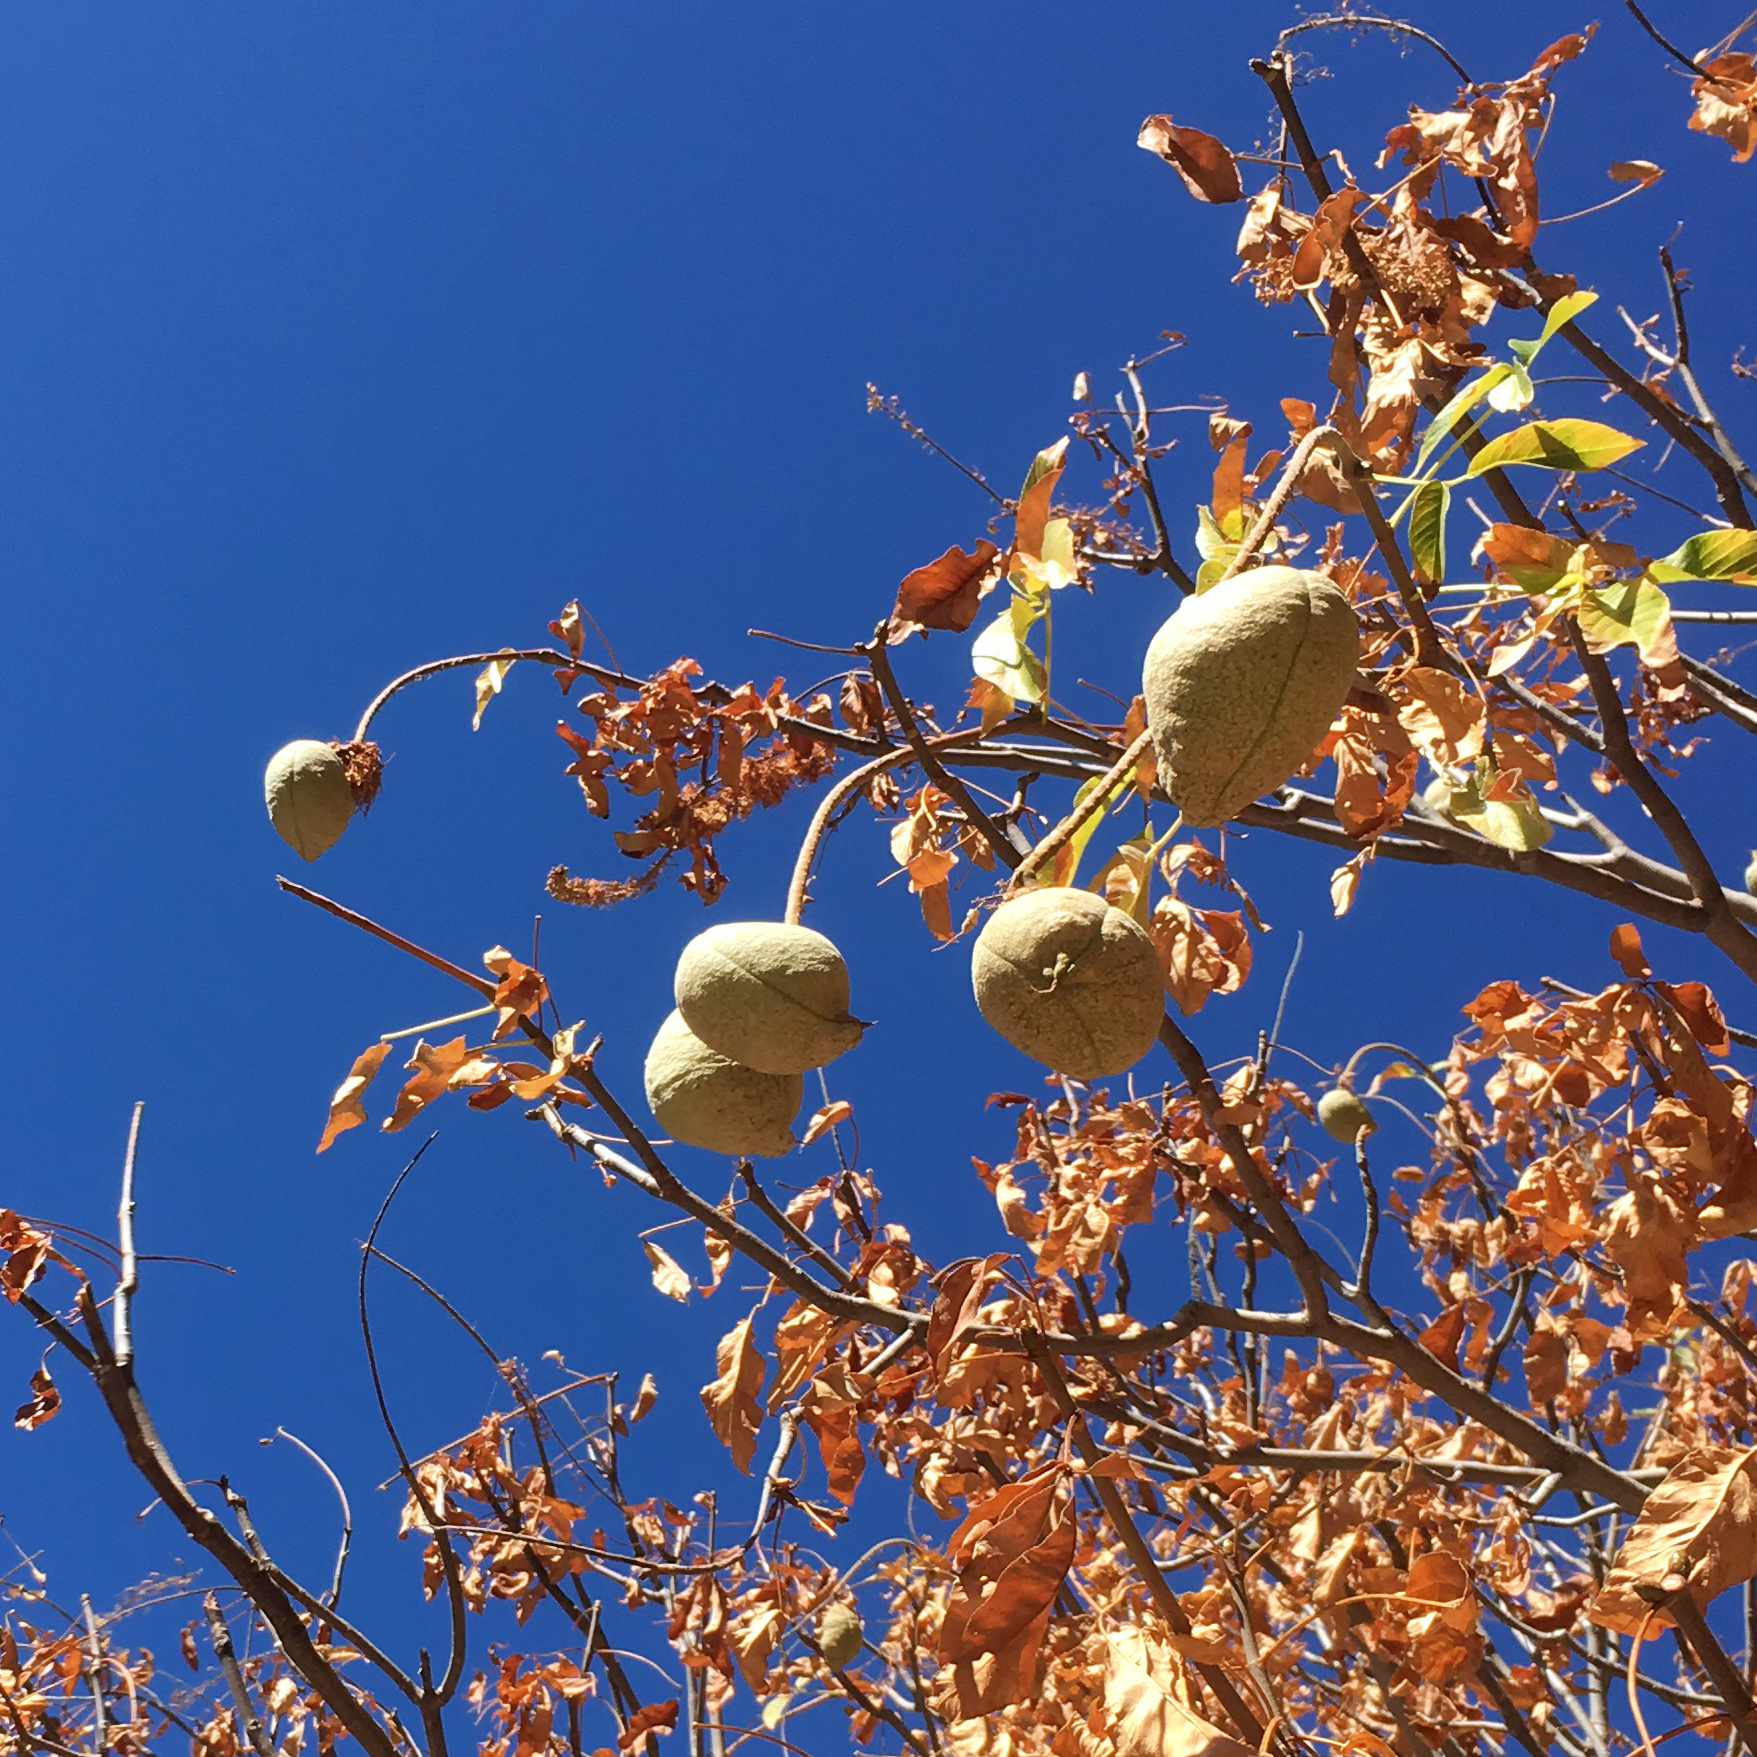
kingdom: Plantae
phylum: Tracheophyta
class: Magnoliopsida
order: Sapindales
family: Sapindaceae
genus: Aesculus
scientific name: Aesculus californica
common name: California buckeye
